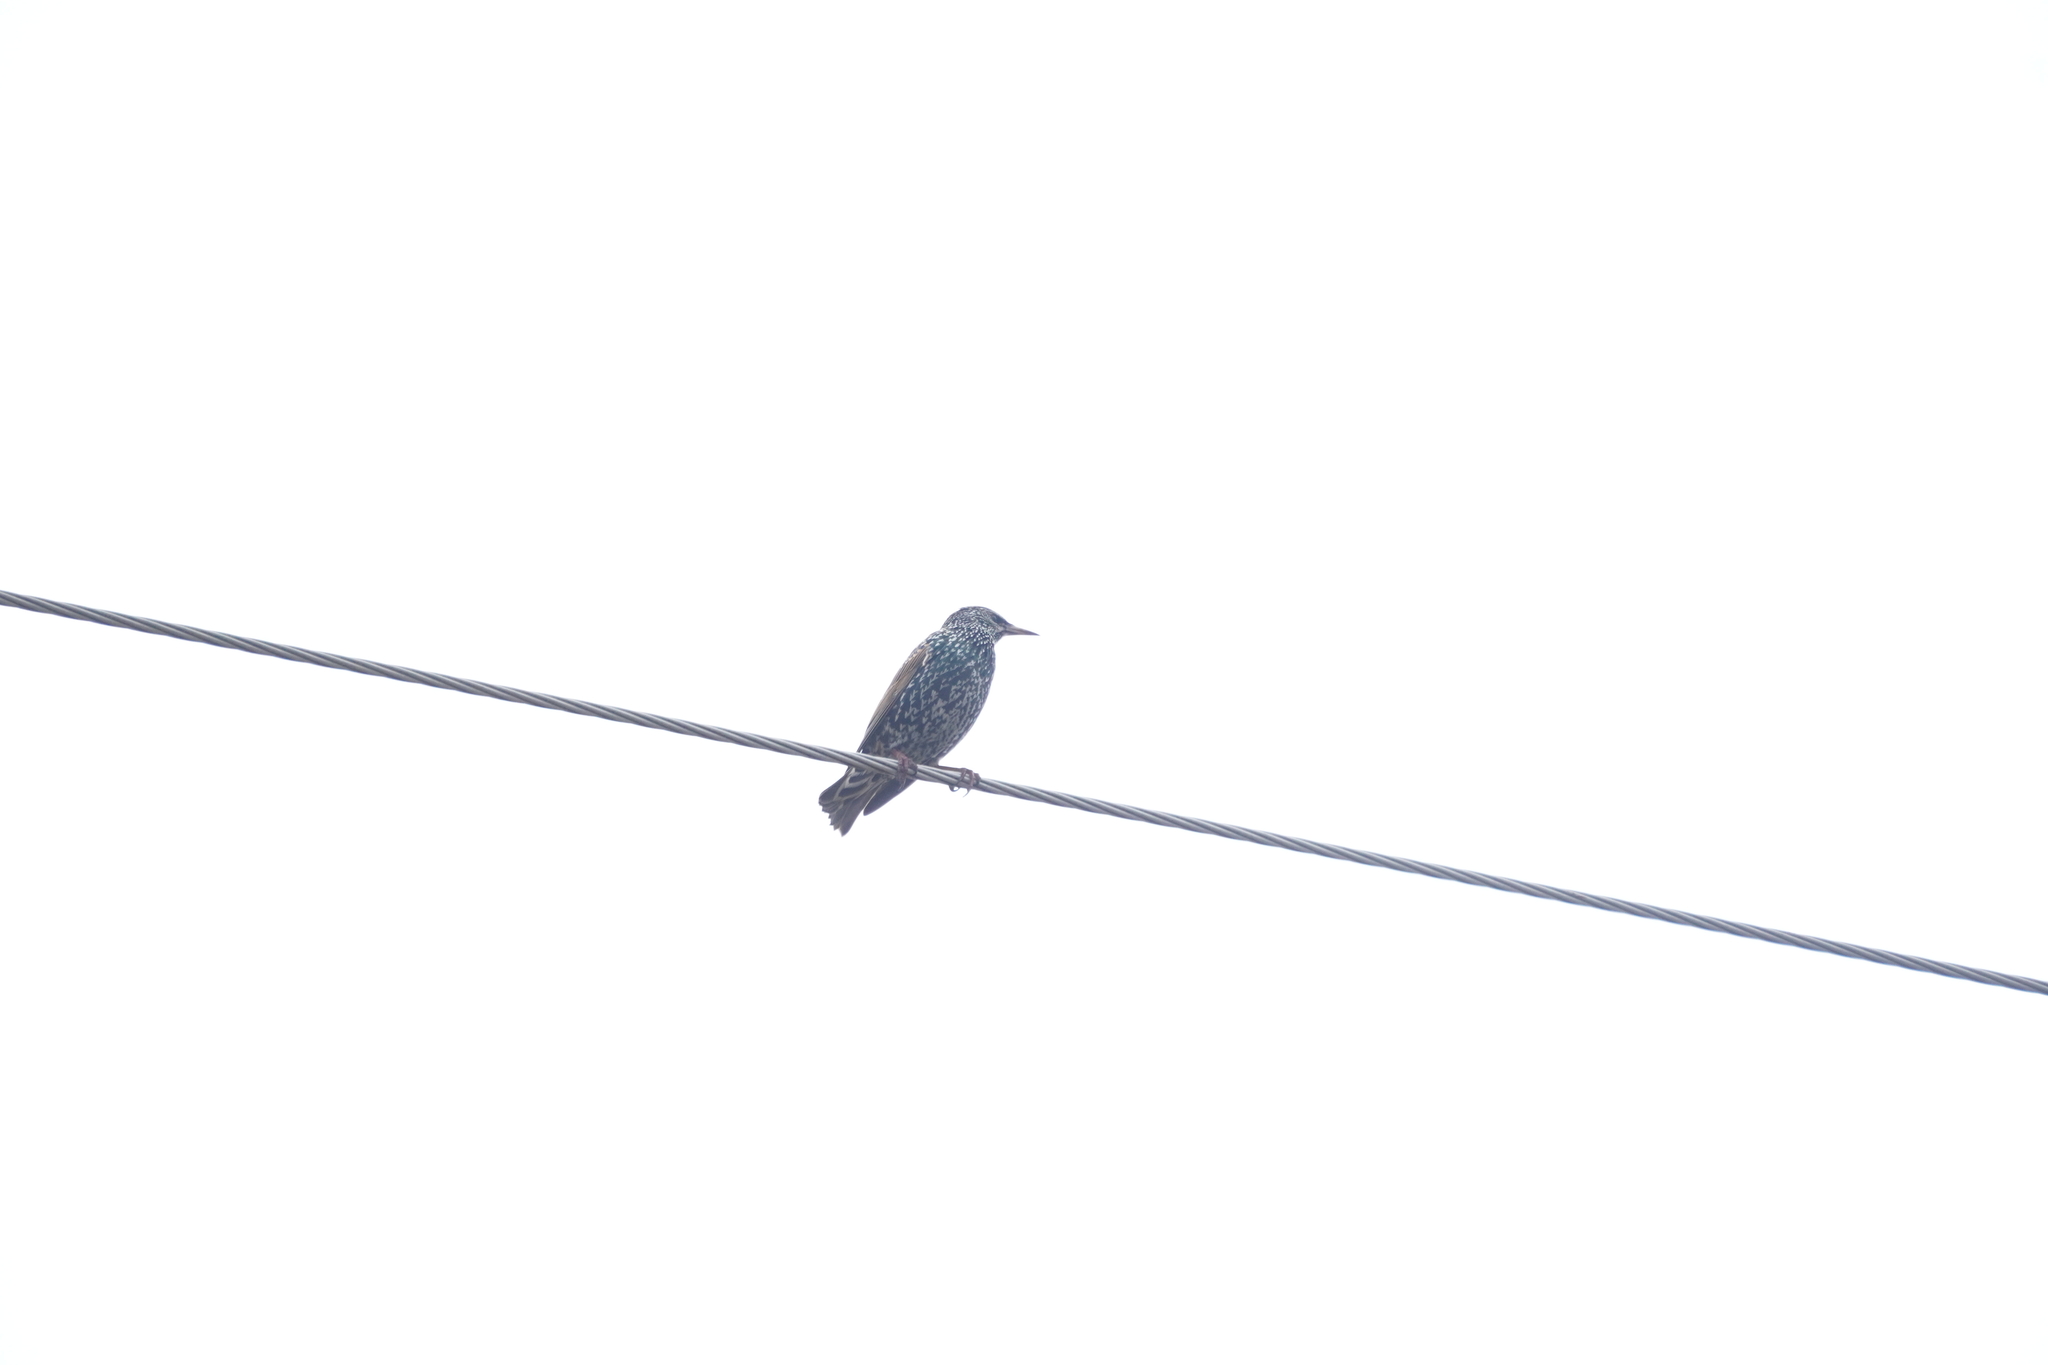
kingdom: Animalia
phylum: Chordata
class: Aves
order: Passeriformes
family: Sturnidae
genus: Sturnus
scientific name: Sturnus vulgaris
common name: Common starling
